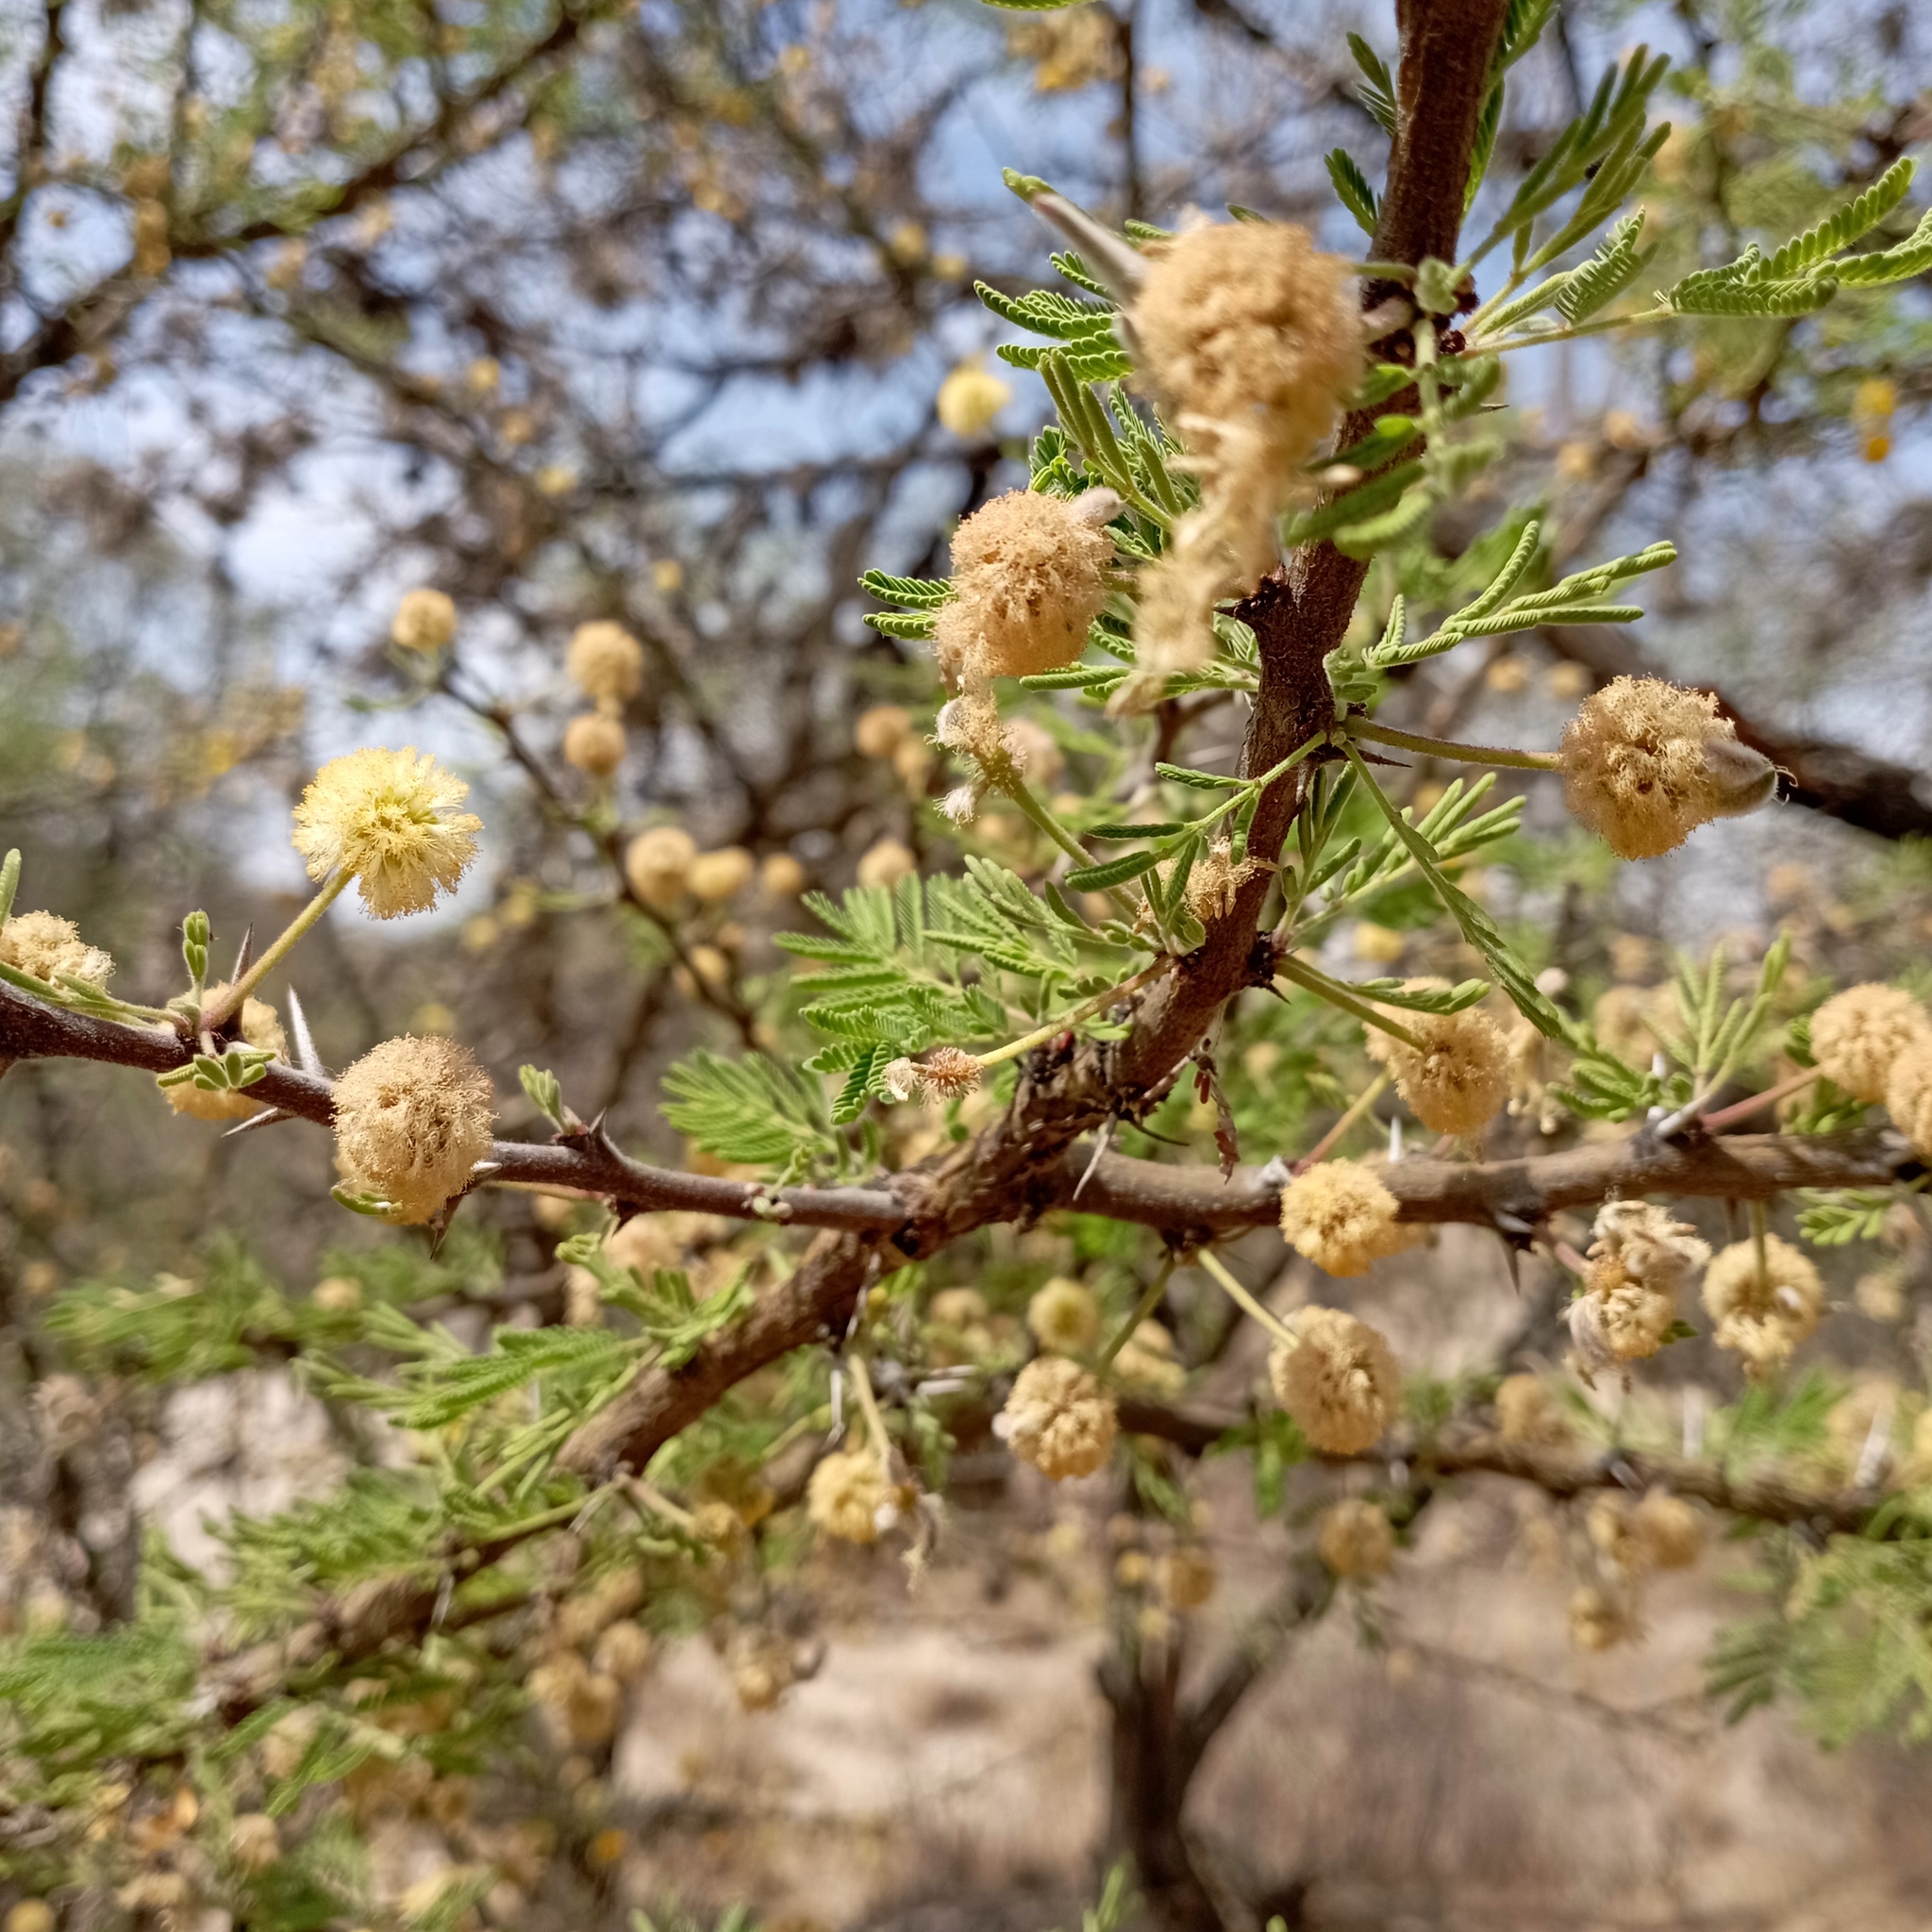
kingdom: Plantae
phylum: Tracheophyta
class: Magnoliopsida
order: Fabales
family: Fabaceae
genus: Vachellia
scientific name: Vachellia farnesiana
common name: Sweet acacia
